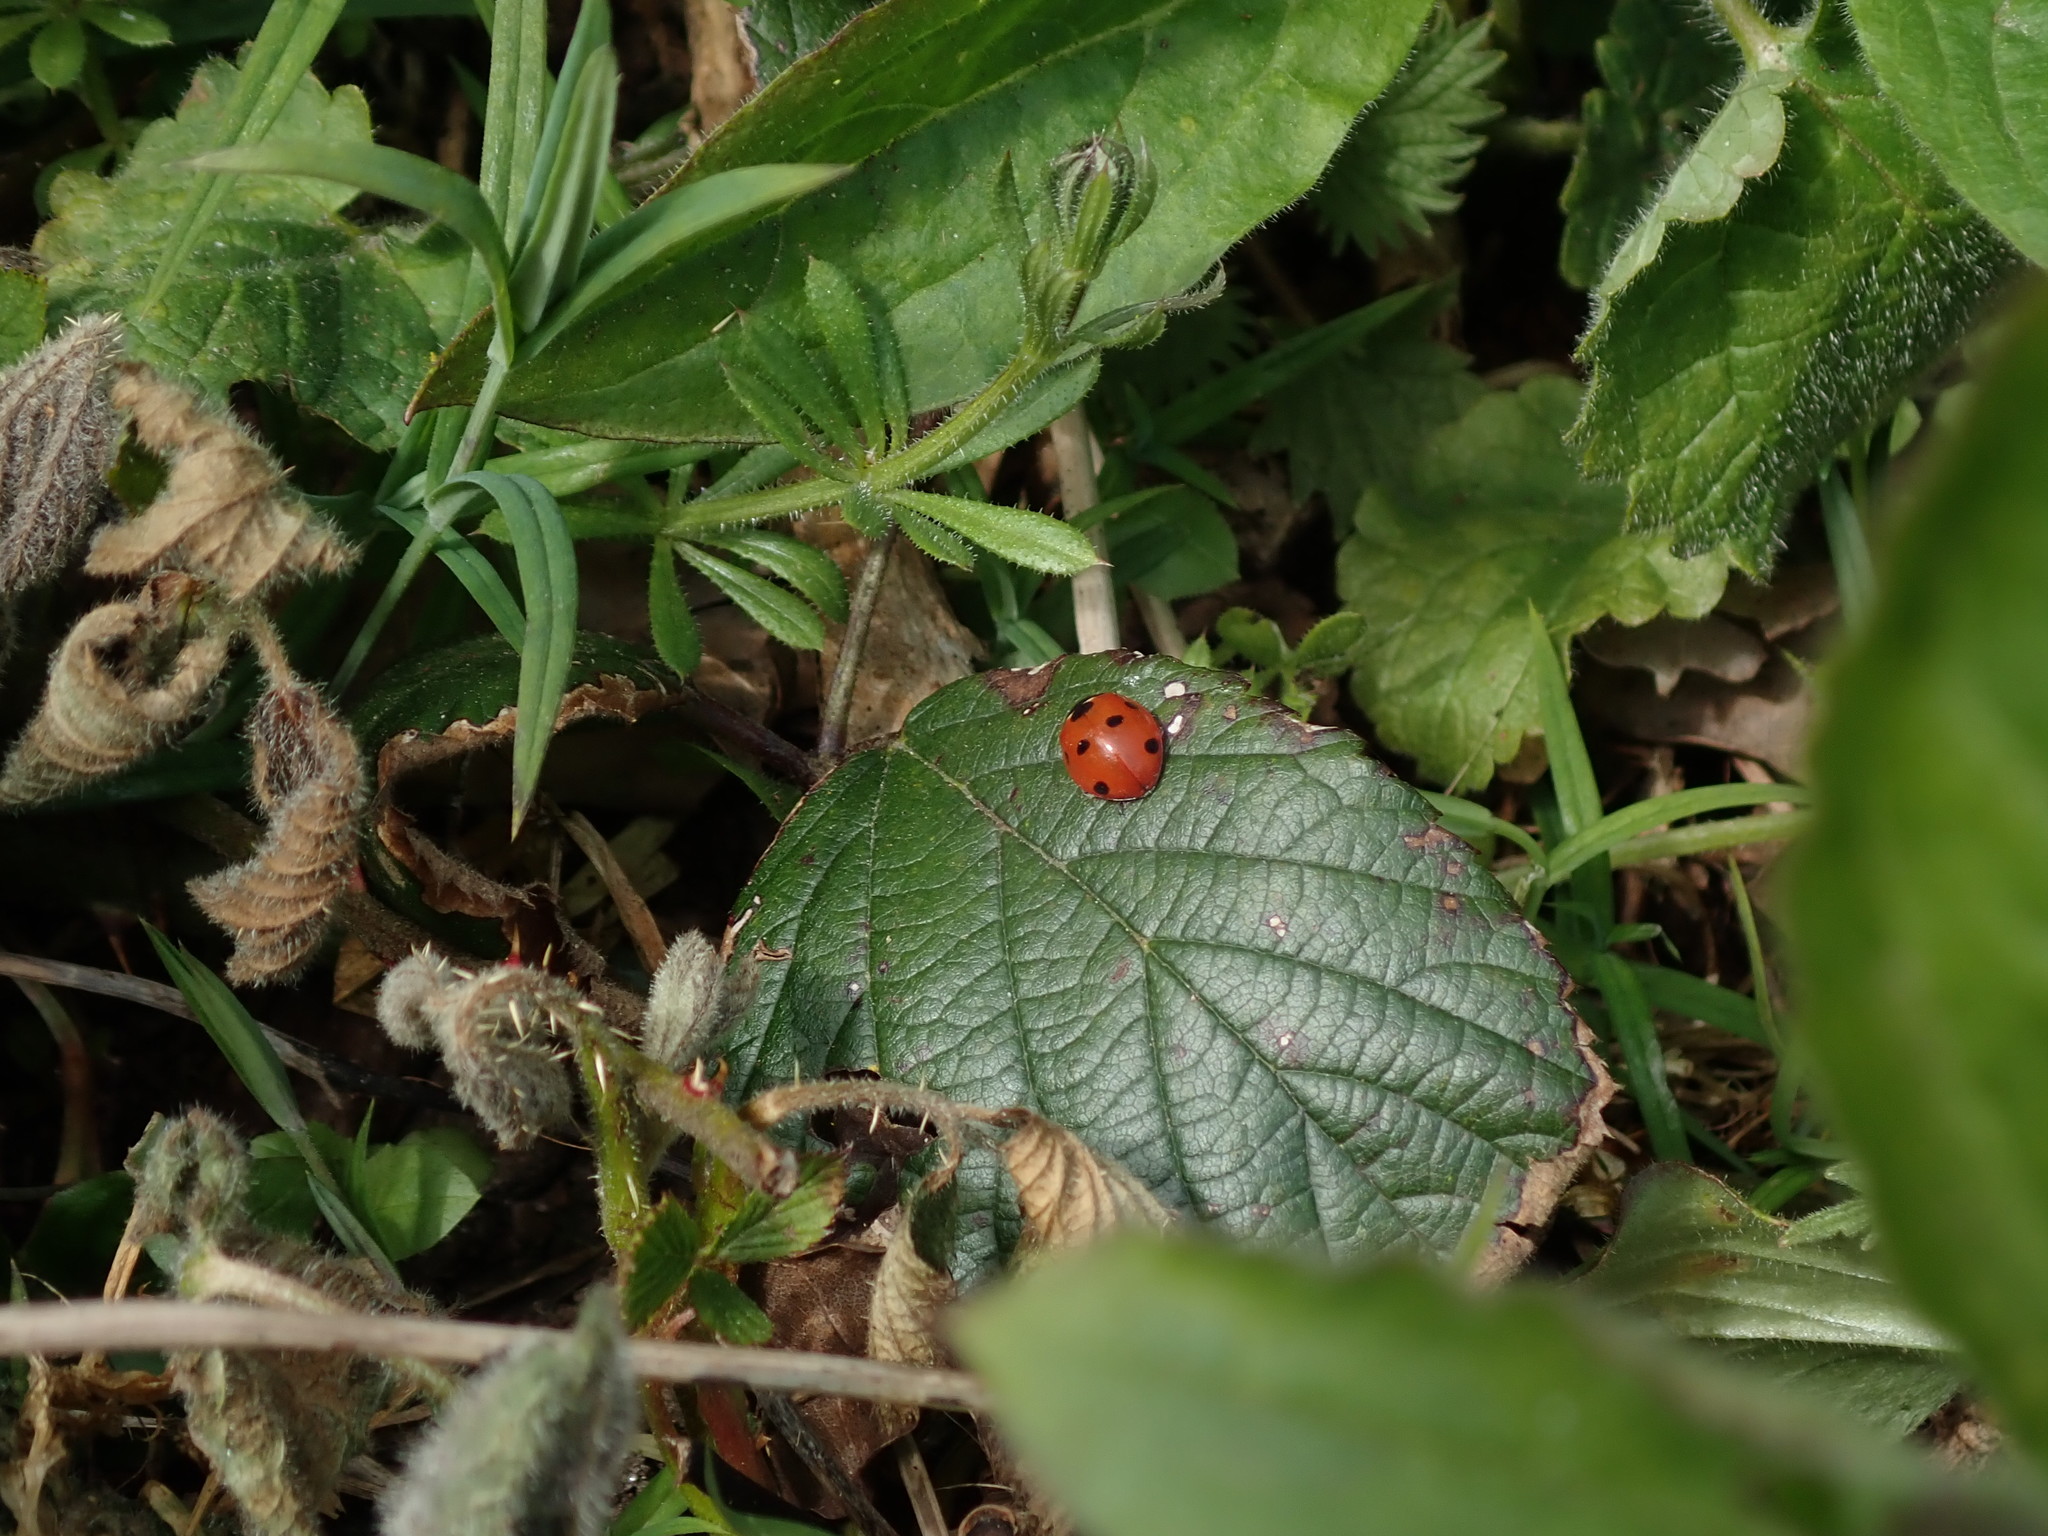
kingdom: Animalia
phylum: Arthropoda
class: Insecta
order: Coleoptera
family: Coccinellidae
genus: Coccinella
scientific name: Coccinella septempunctata
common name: Sevenspotted lady beetle
